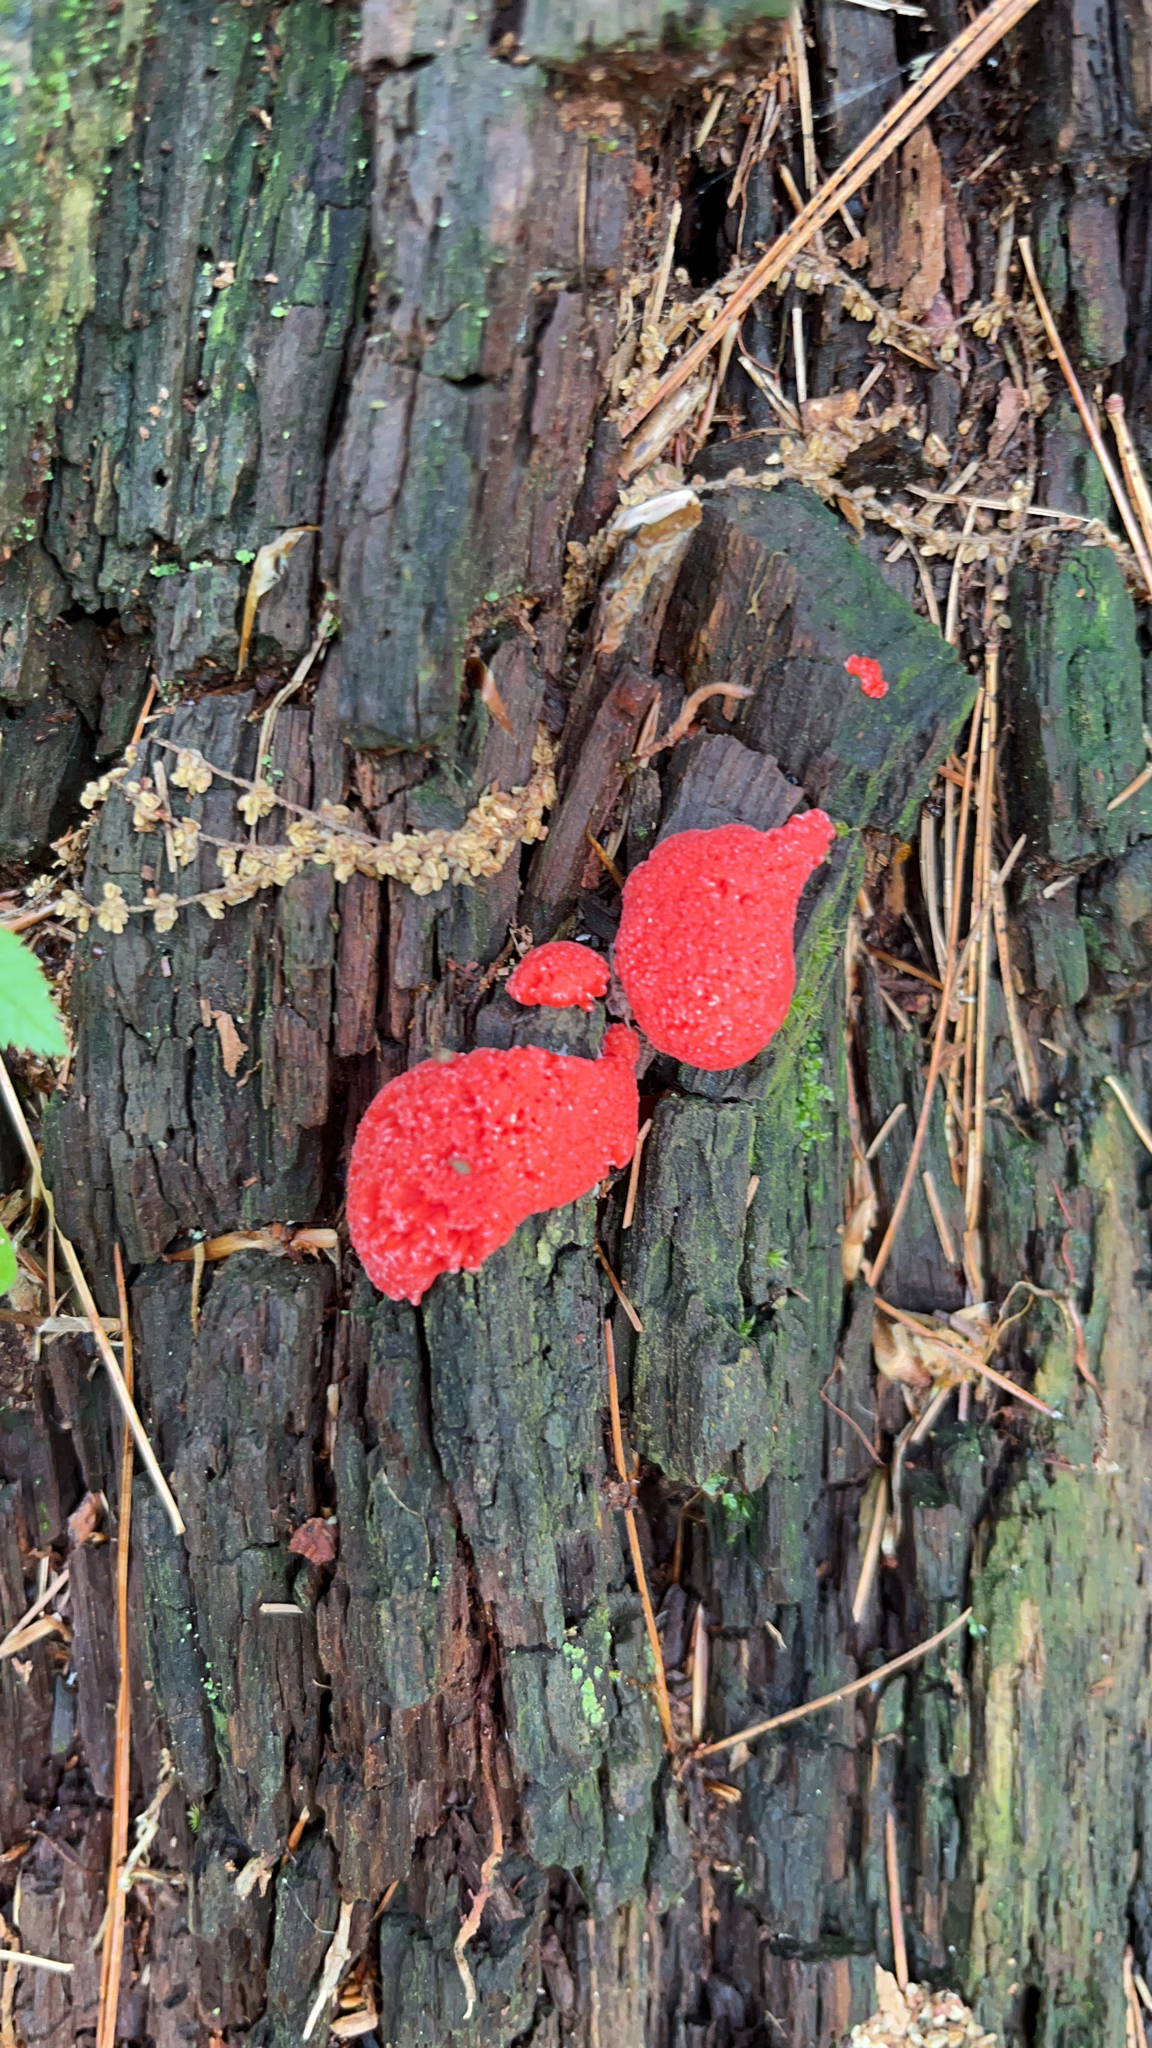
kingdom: Protozoa
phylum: Mycetozoa
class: Myxomycetes
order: Cribrariales
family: Tubiferaceae
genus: Tubifera
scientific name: Tubifera ferruginosa
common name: Red raspberry slime mold
